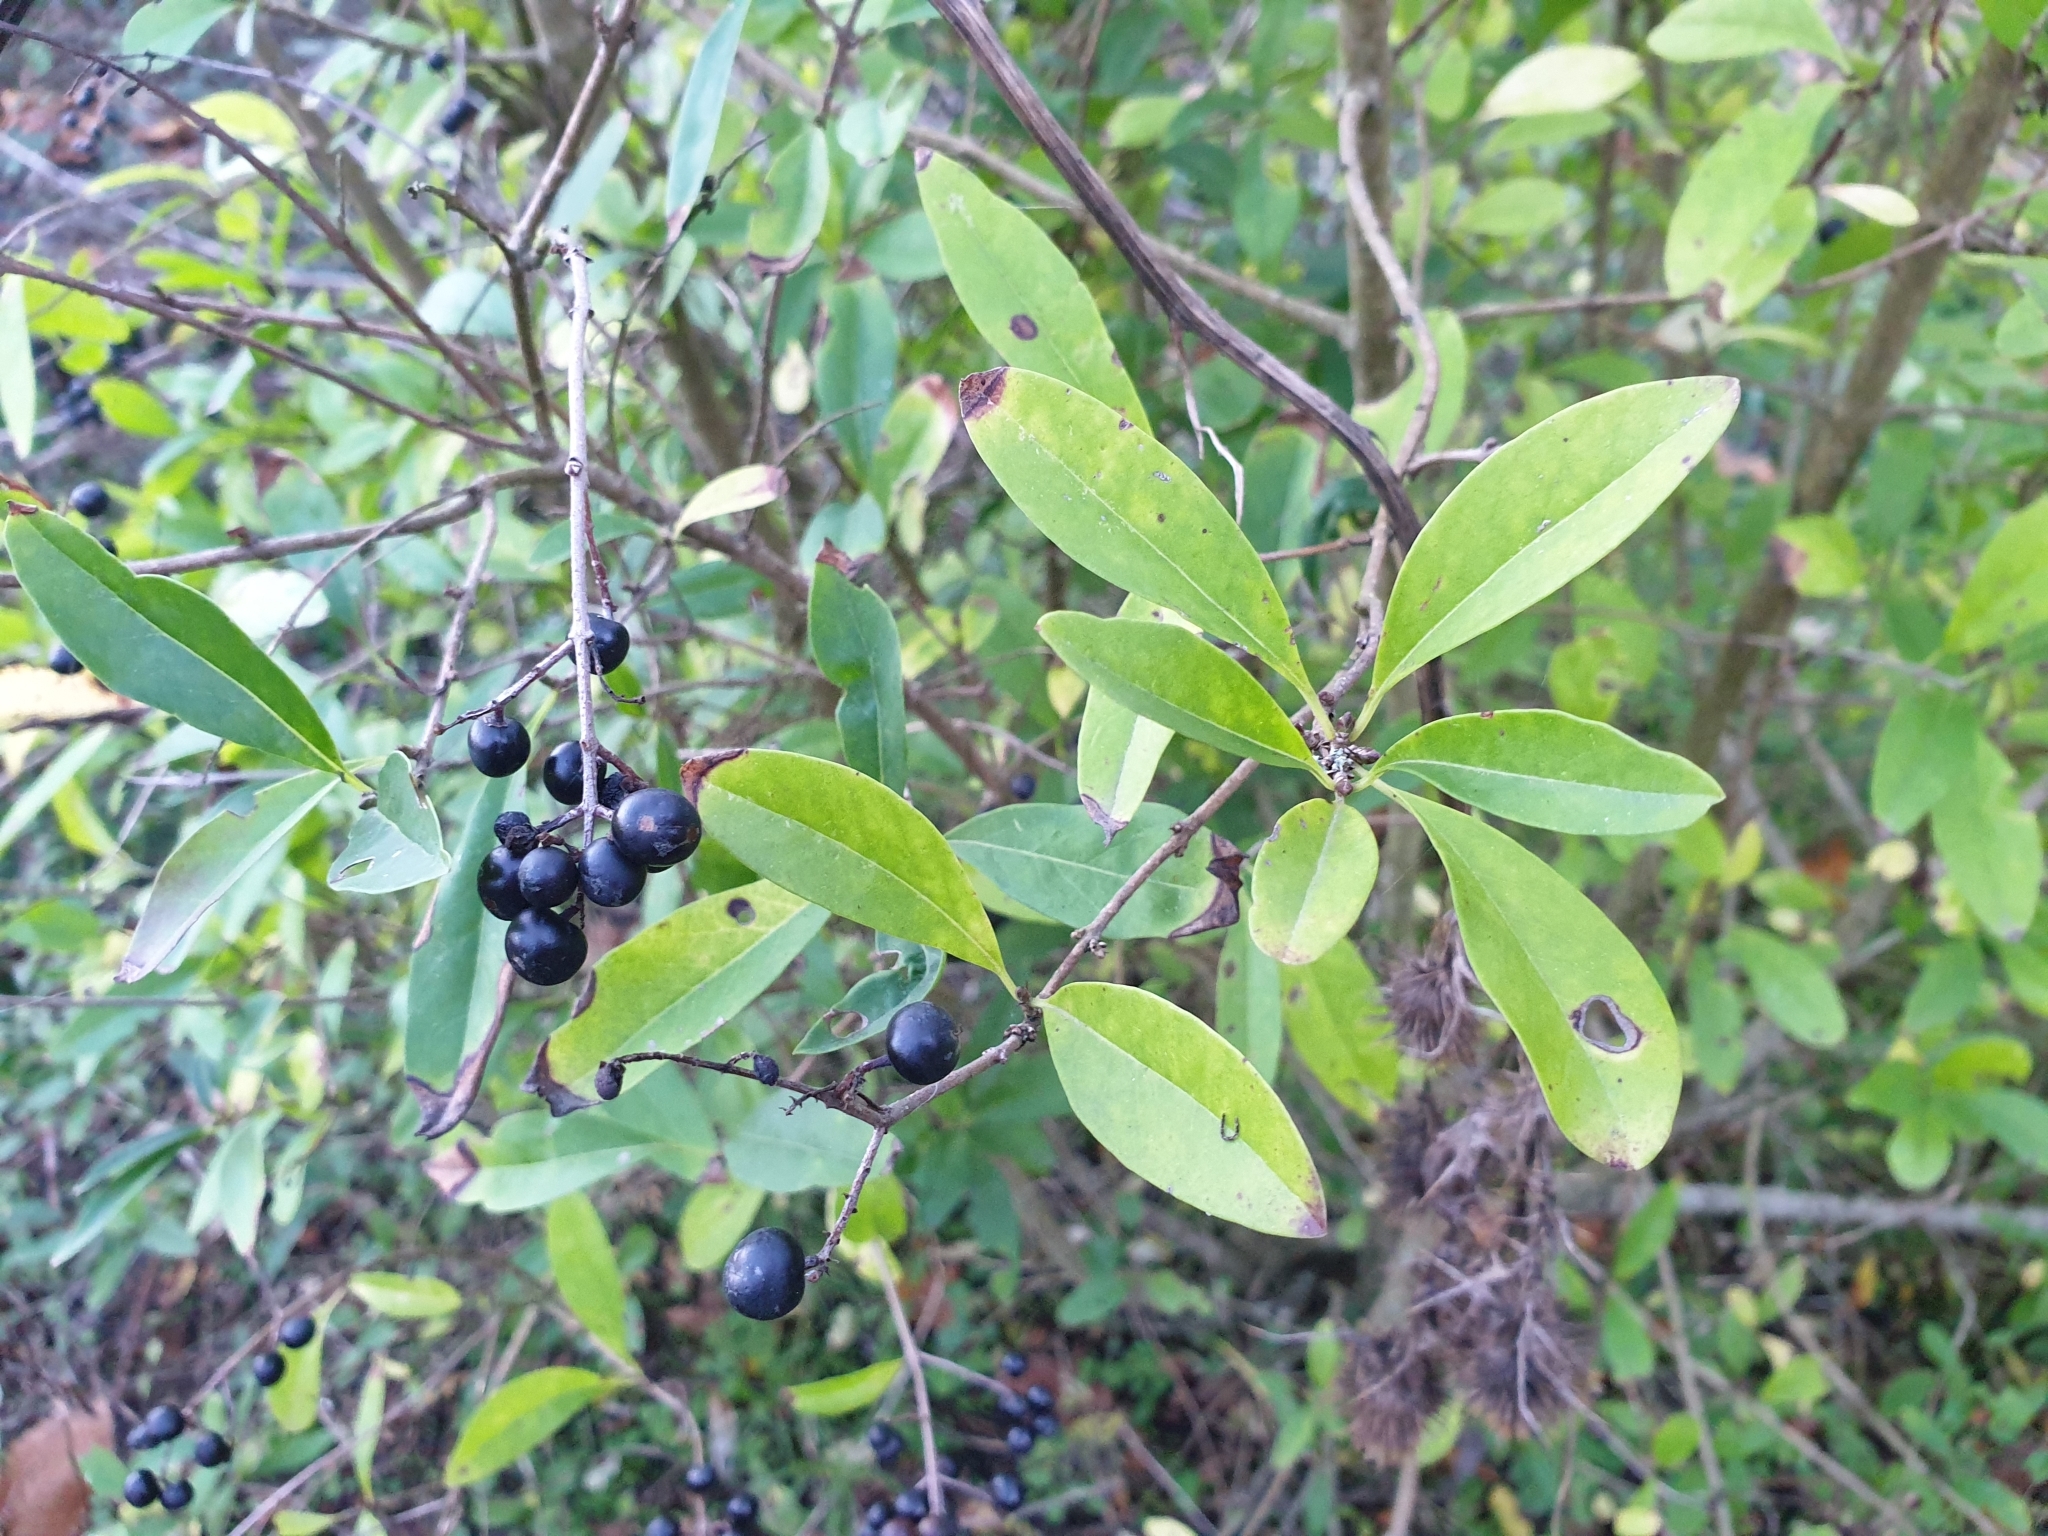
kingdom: Plantae
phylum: Tracheophyta
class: Magnoliopsida
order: Lamiales
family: Oleaceae
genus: Ligustrum
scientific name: Ligustrum vulgare
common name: Wild privet
